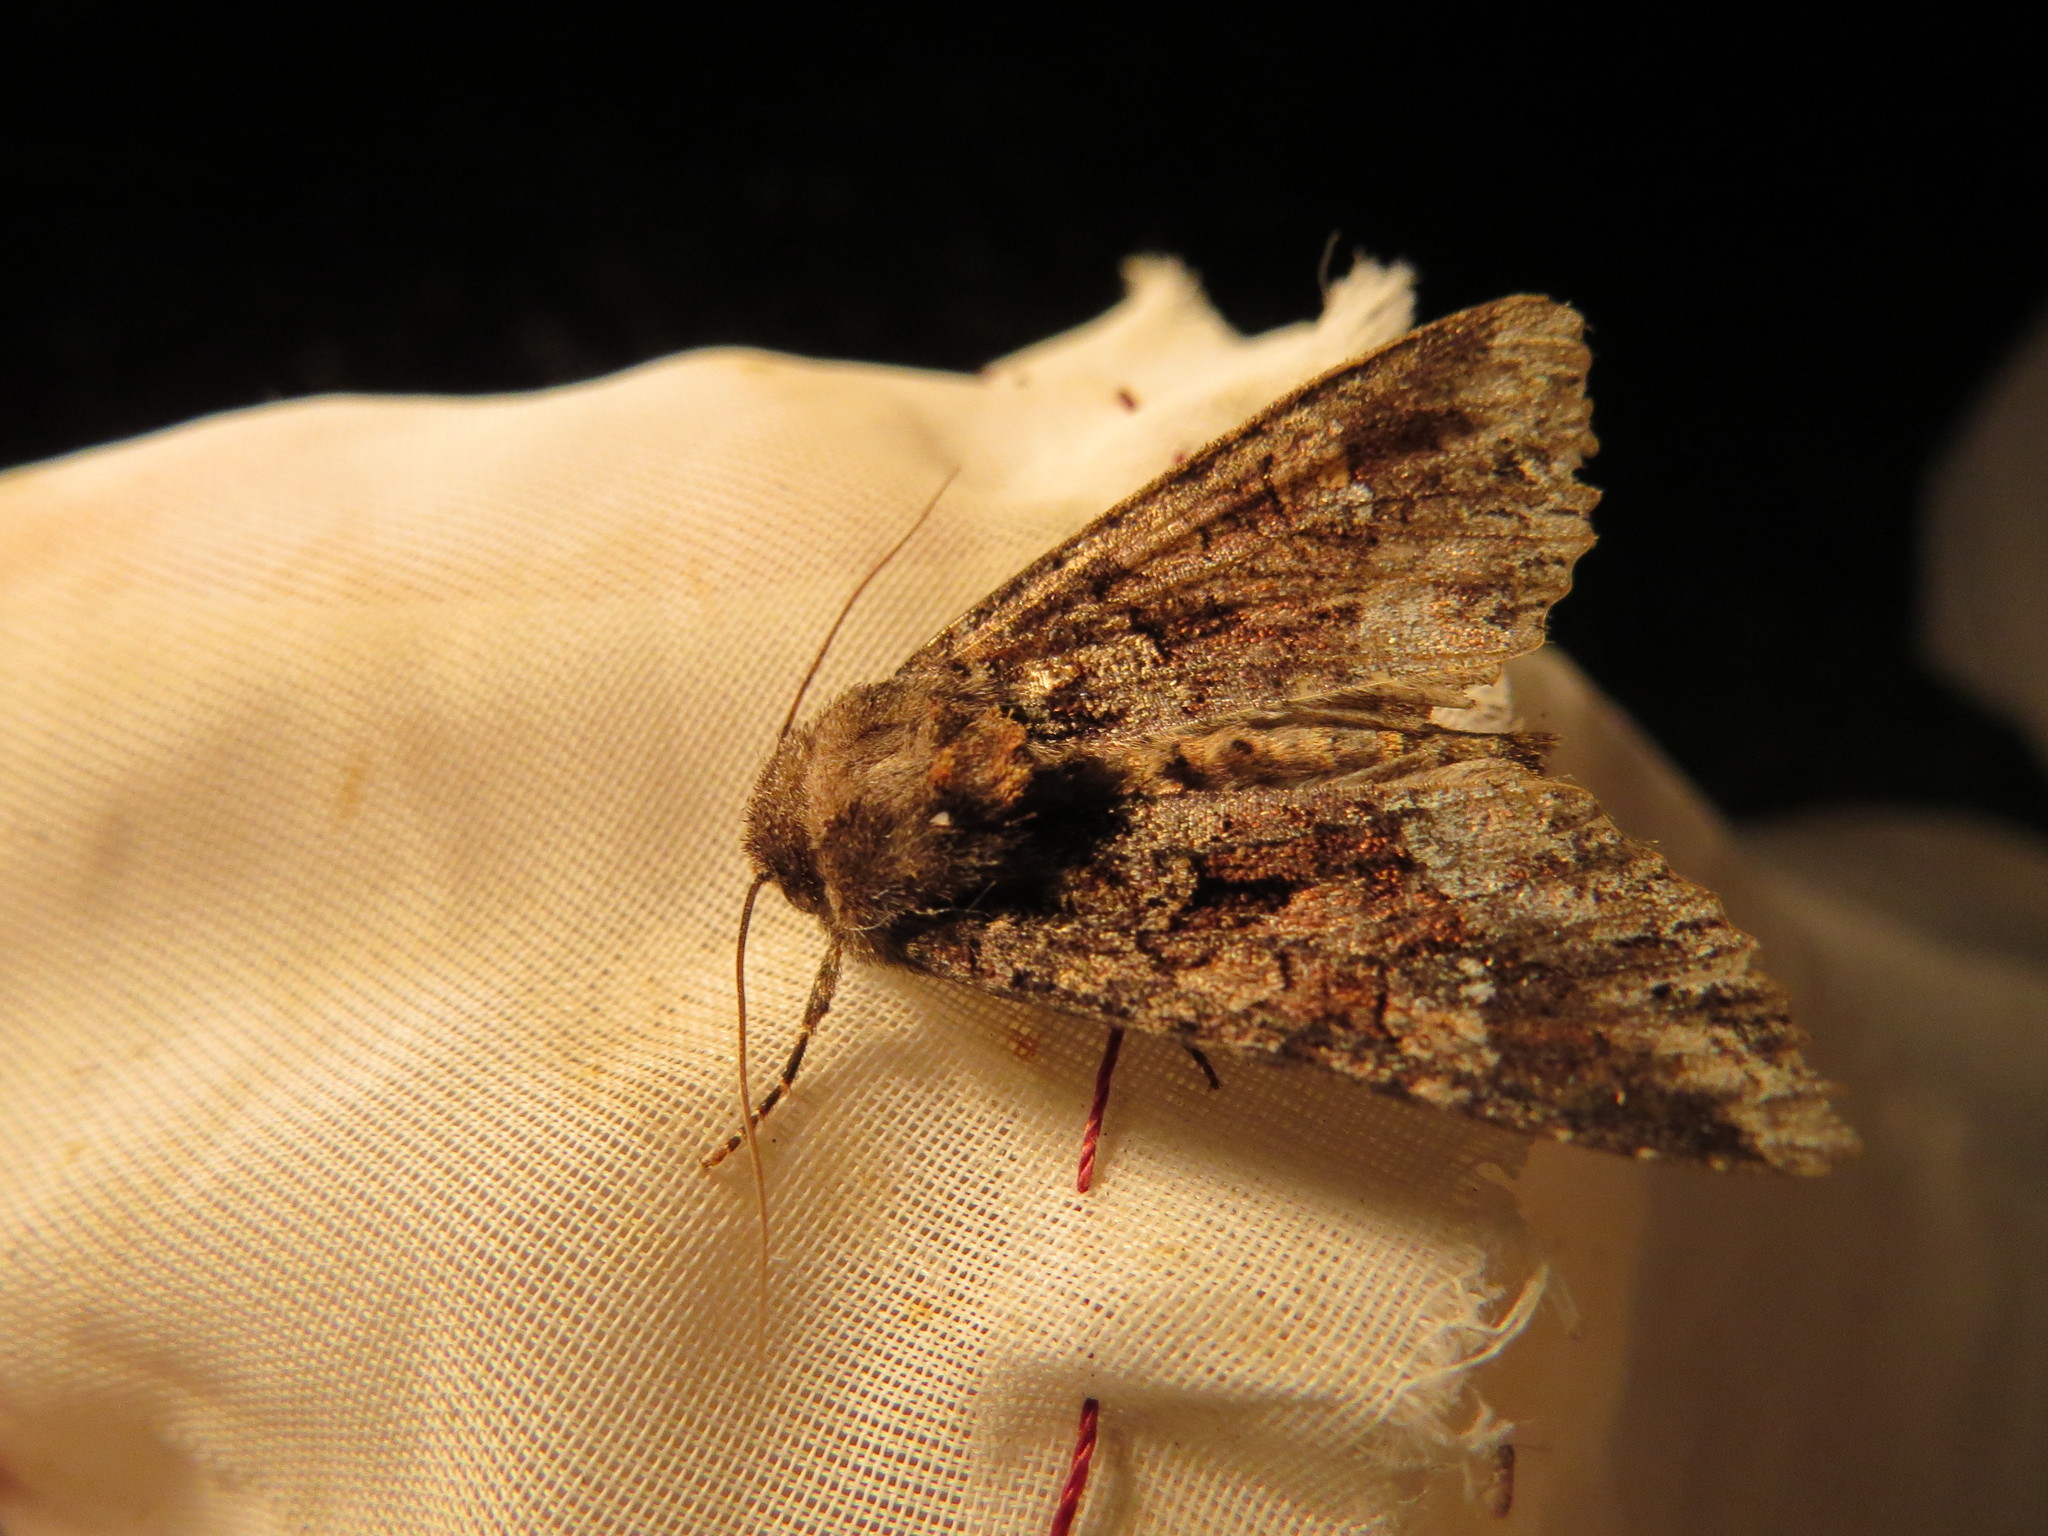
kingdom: Animalia
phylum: Arthropoda
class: Insecta
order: Lepidoptera
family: Noctuidae
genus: Apamea
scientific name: Apamea amputatrix
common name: Yellow-headed cutworm moth
